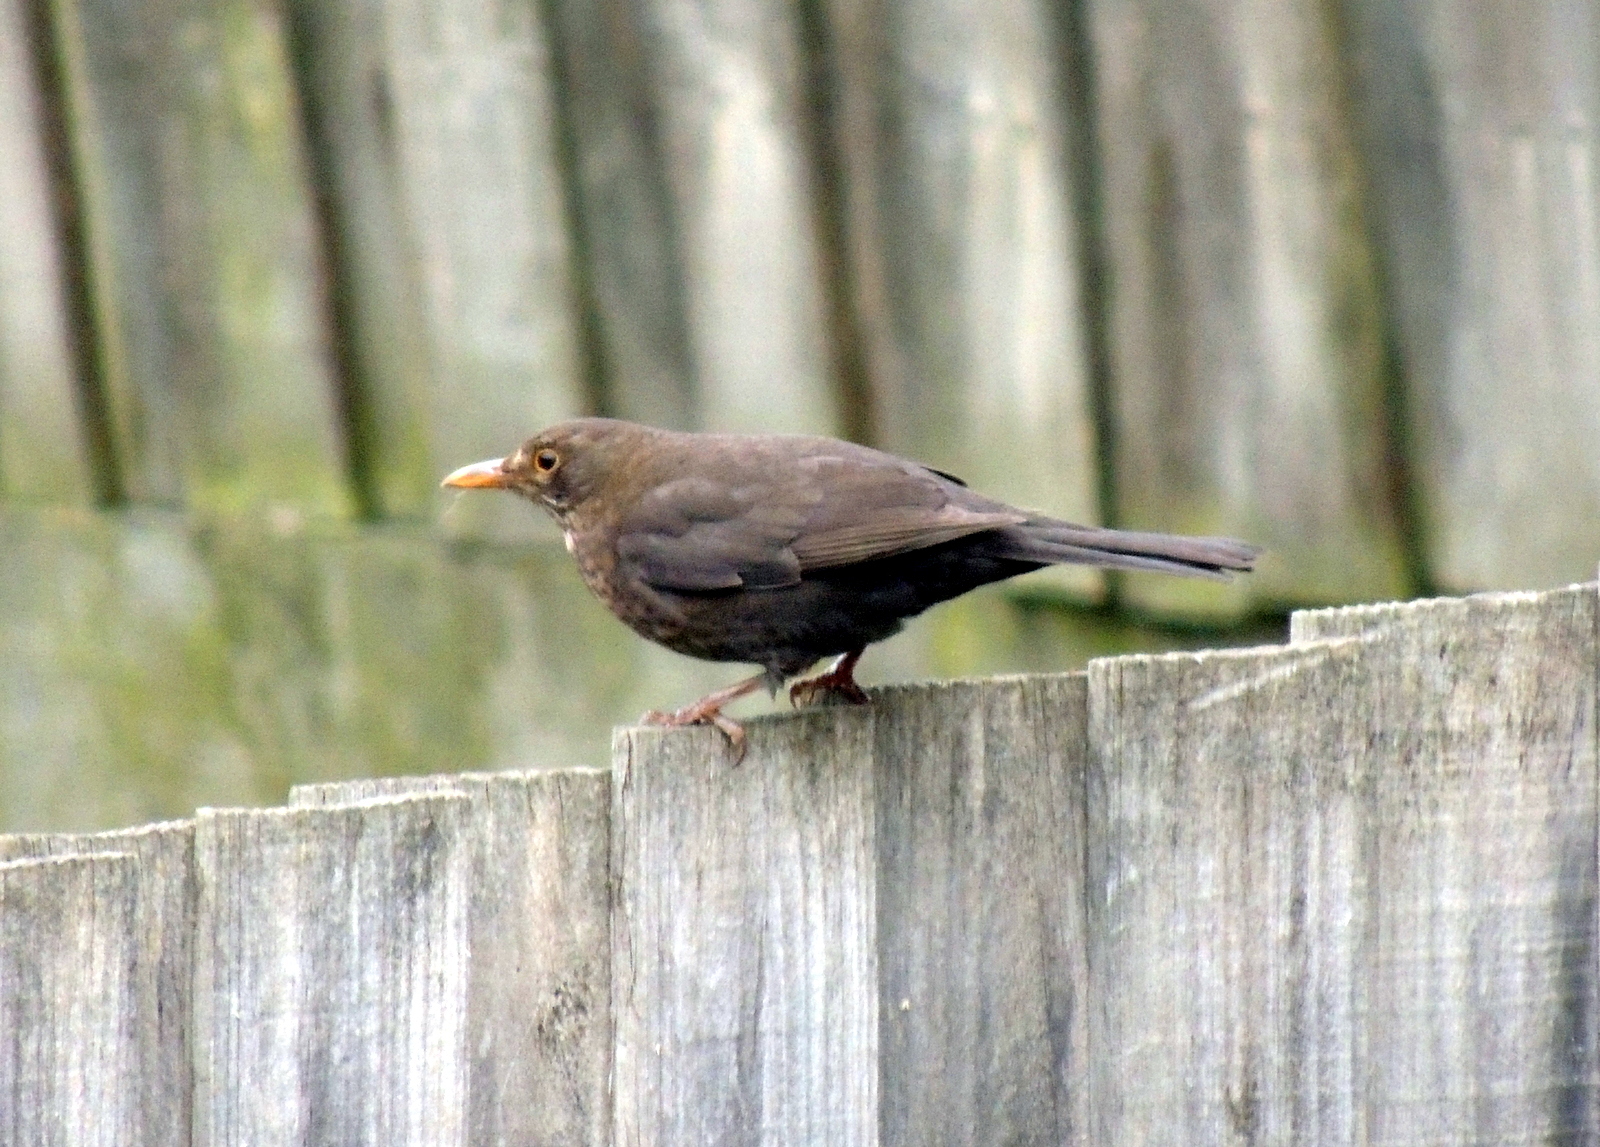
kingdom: Animalia
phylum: Chordata
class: Aves
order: Passeriformes
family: Turdidae
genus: Turdus
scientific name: Turdus merula
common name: Common blackbird
